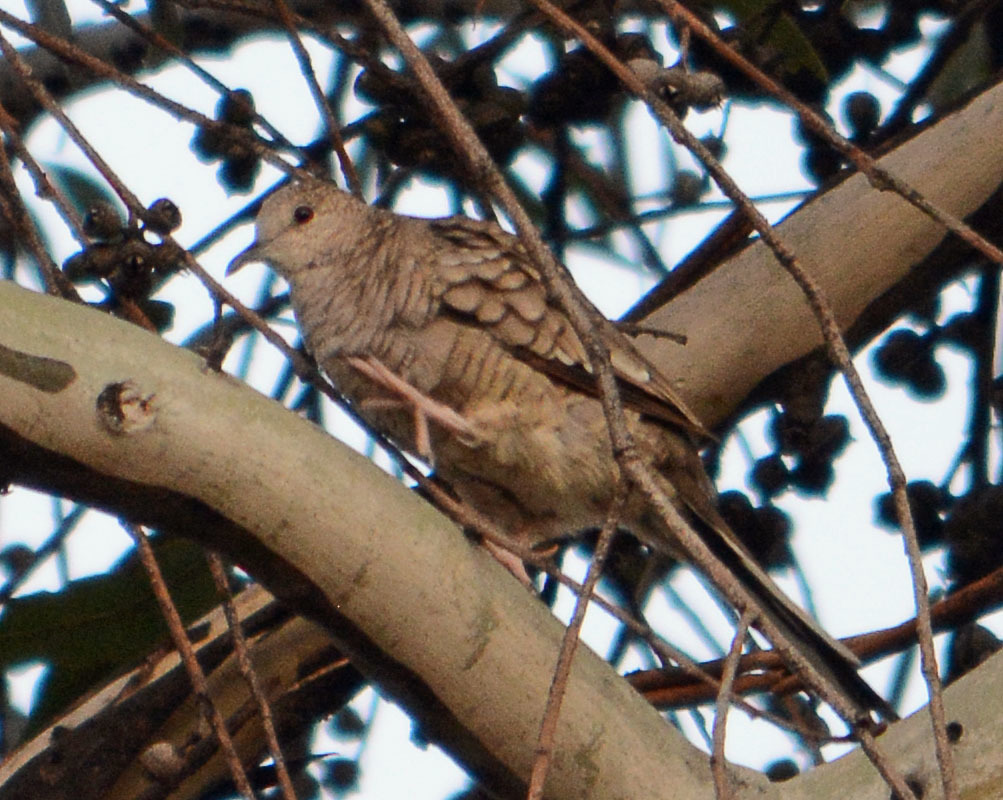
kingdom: Animalia
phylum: Chordata
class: Aves
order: Columbiformes
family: Columbidae
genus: Columbina
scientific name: Columbina inca
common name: Inca dove
